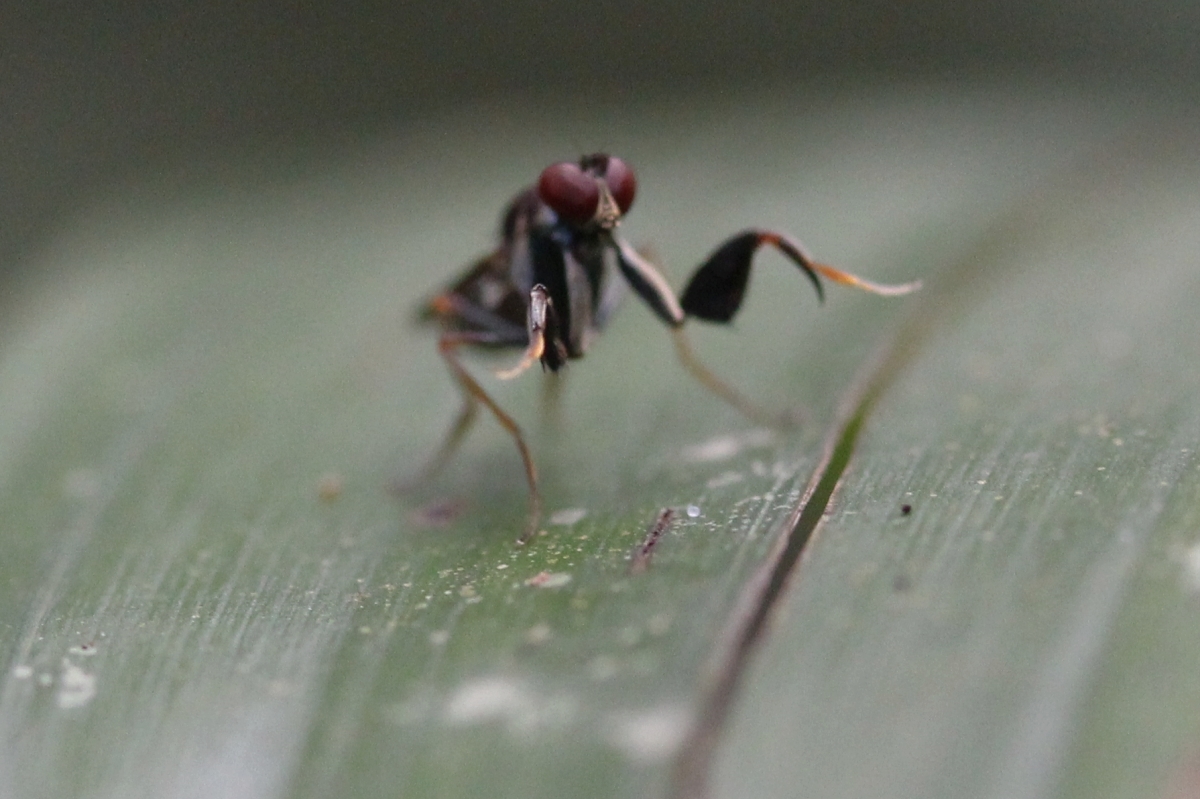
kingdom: Animalia
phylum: Arthropoda
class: Insecta
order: Diptera
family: Ephydridae
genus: Ochthera
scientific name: Ochthera
